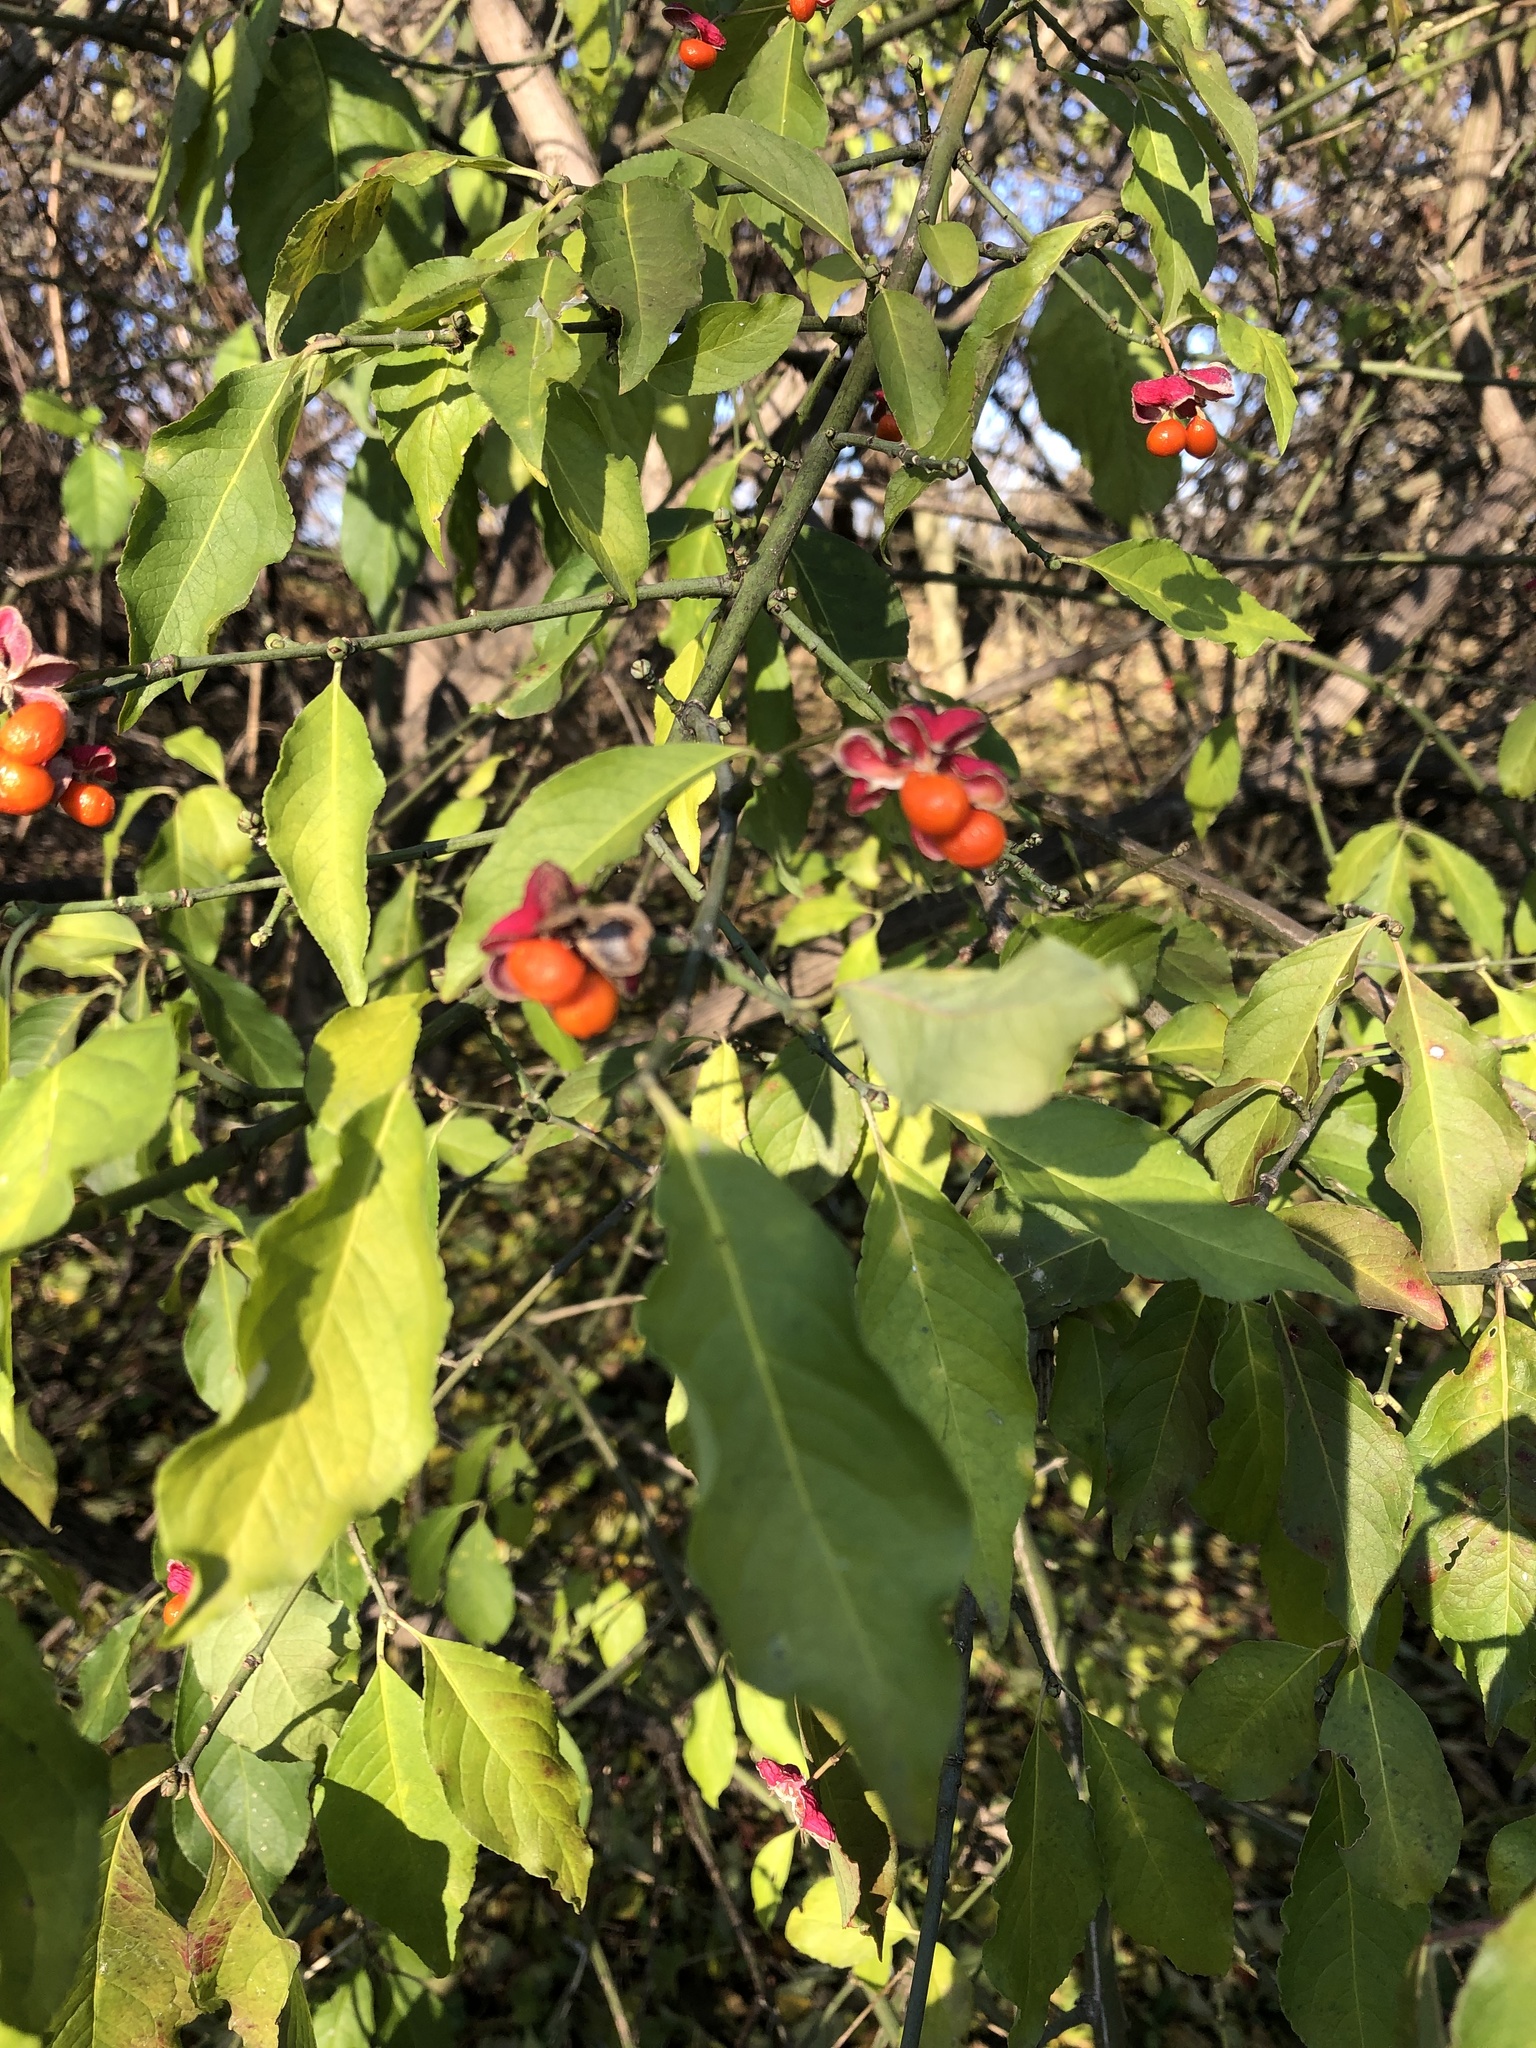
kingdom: Plantae
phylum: Tracheophyta
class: Magnoliopsida
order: Celastrales
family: Celastraceae
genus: Euonymus
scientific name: Euonymus europaeus
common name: Spindle
